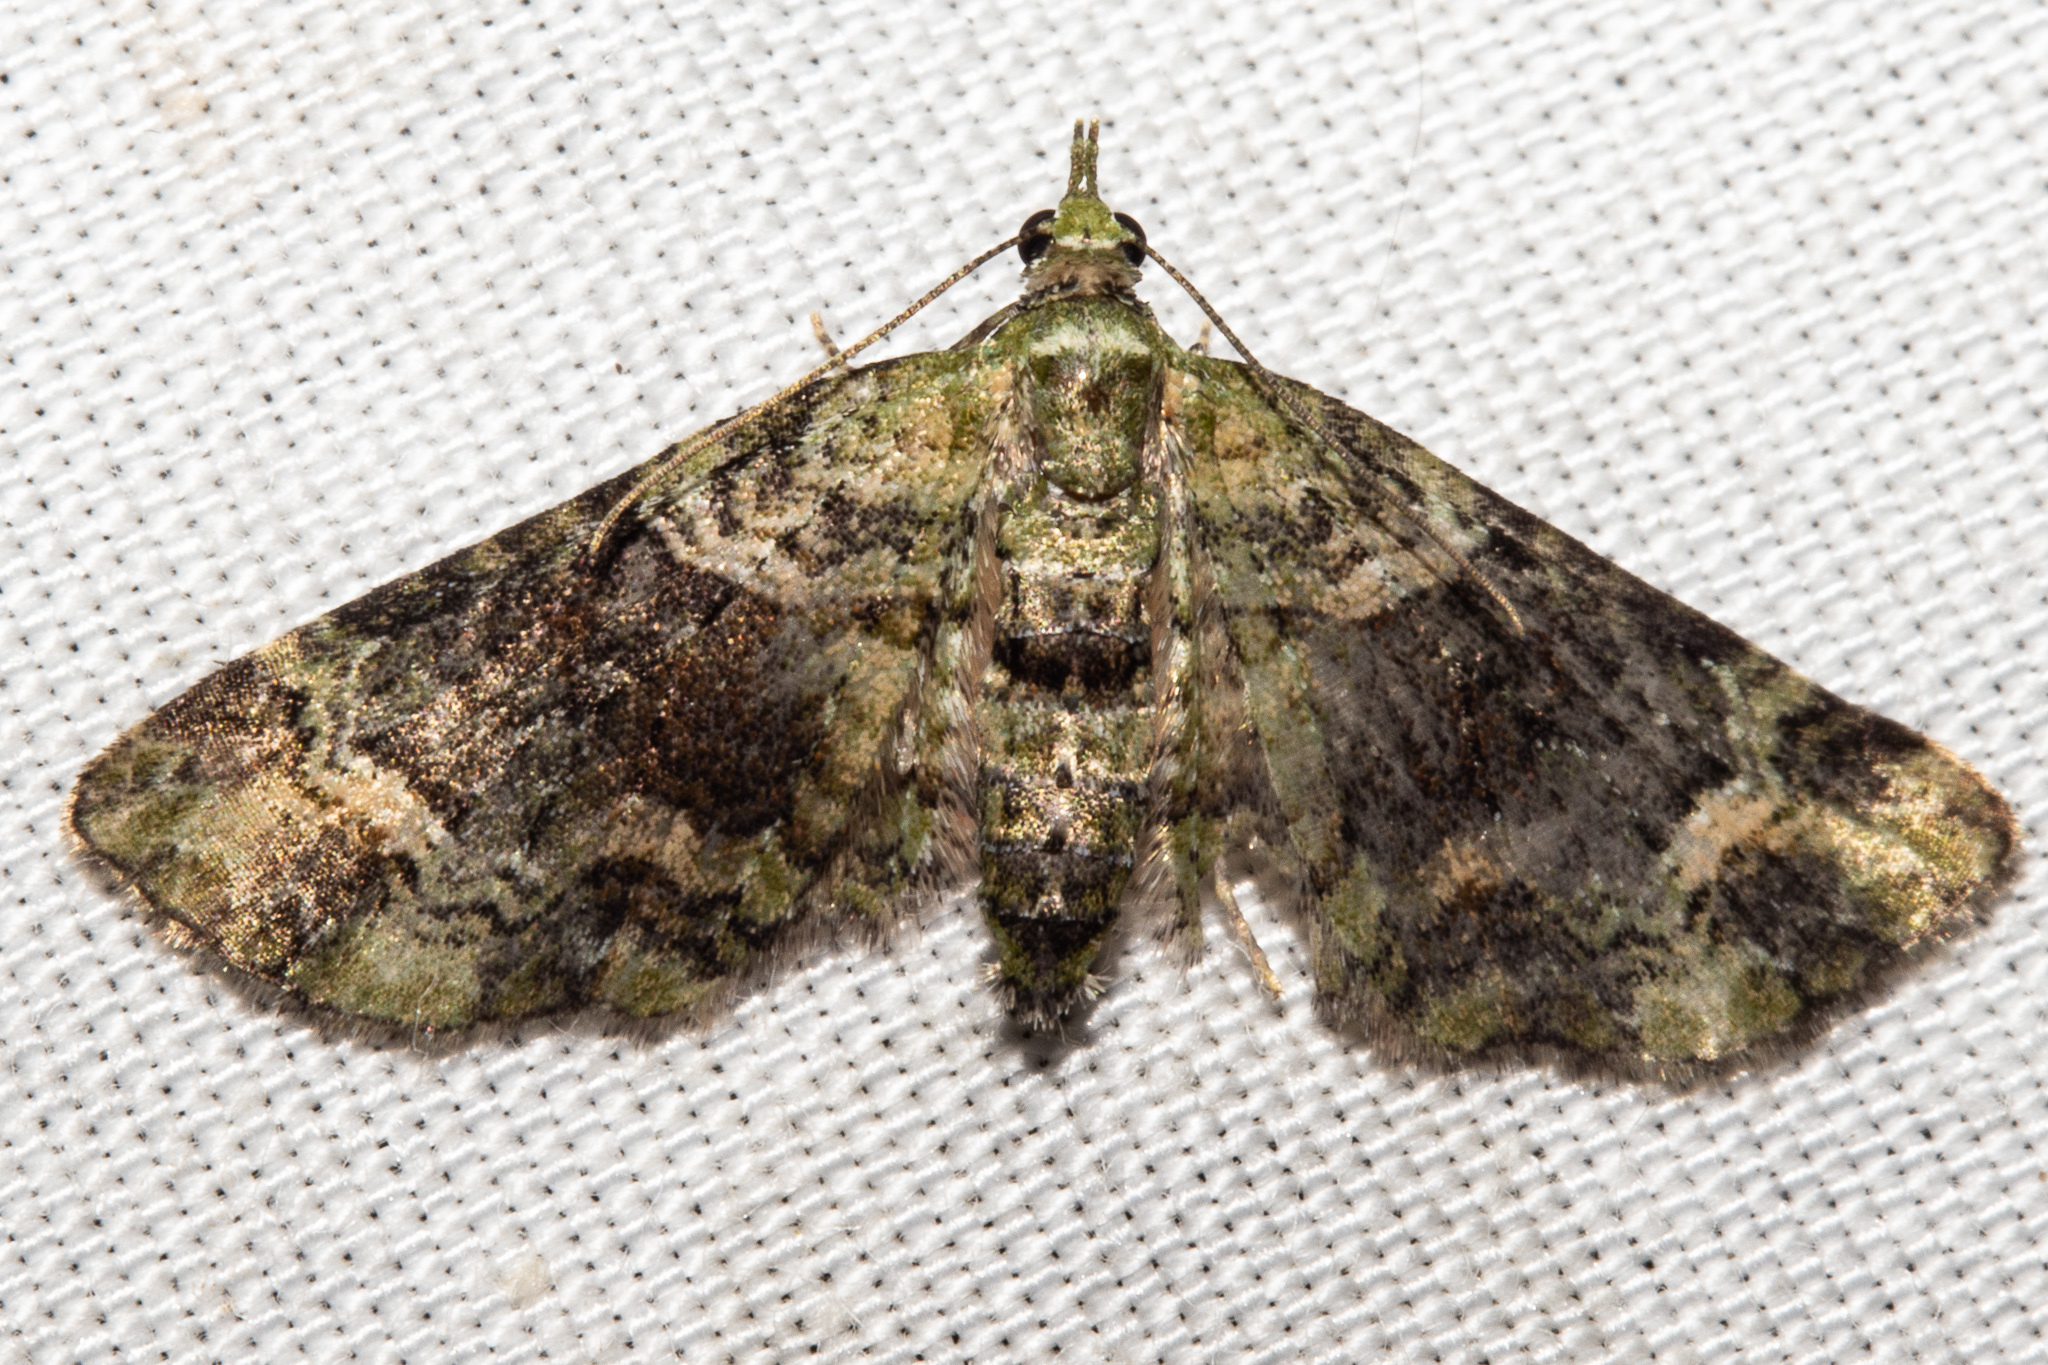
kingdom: Animalia
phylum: Arthropoda
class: Insecta
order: Lepidoptera
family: Geometridae
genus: Idaea
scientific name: Idaea mutanda
